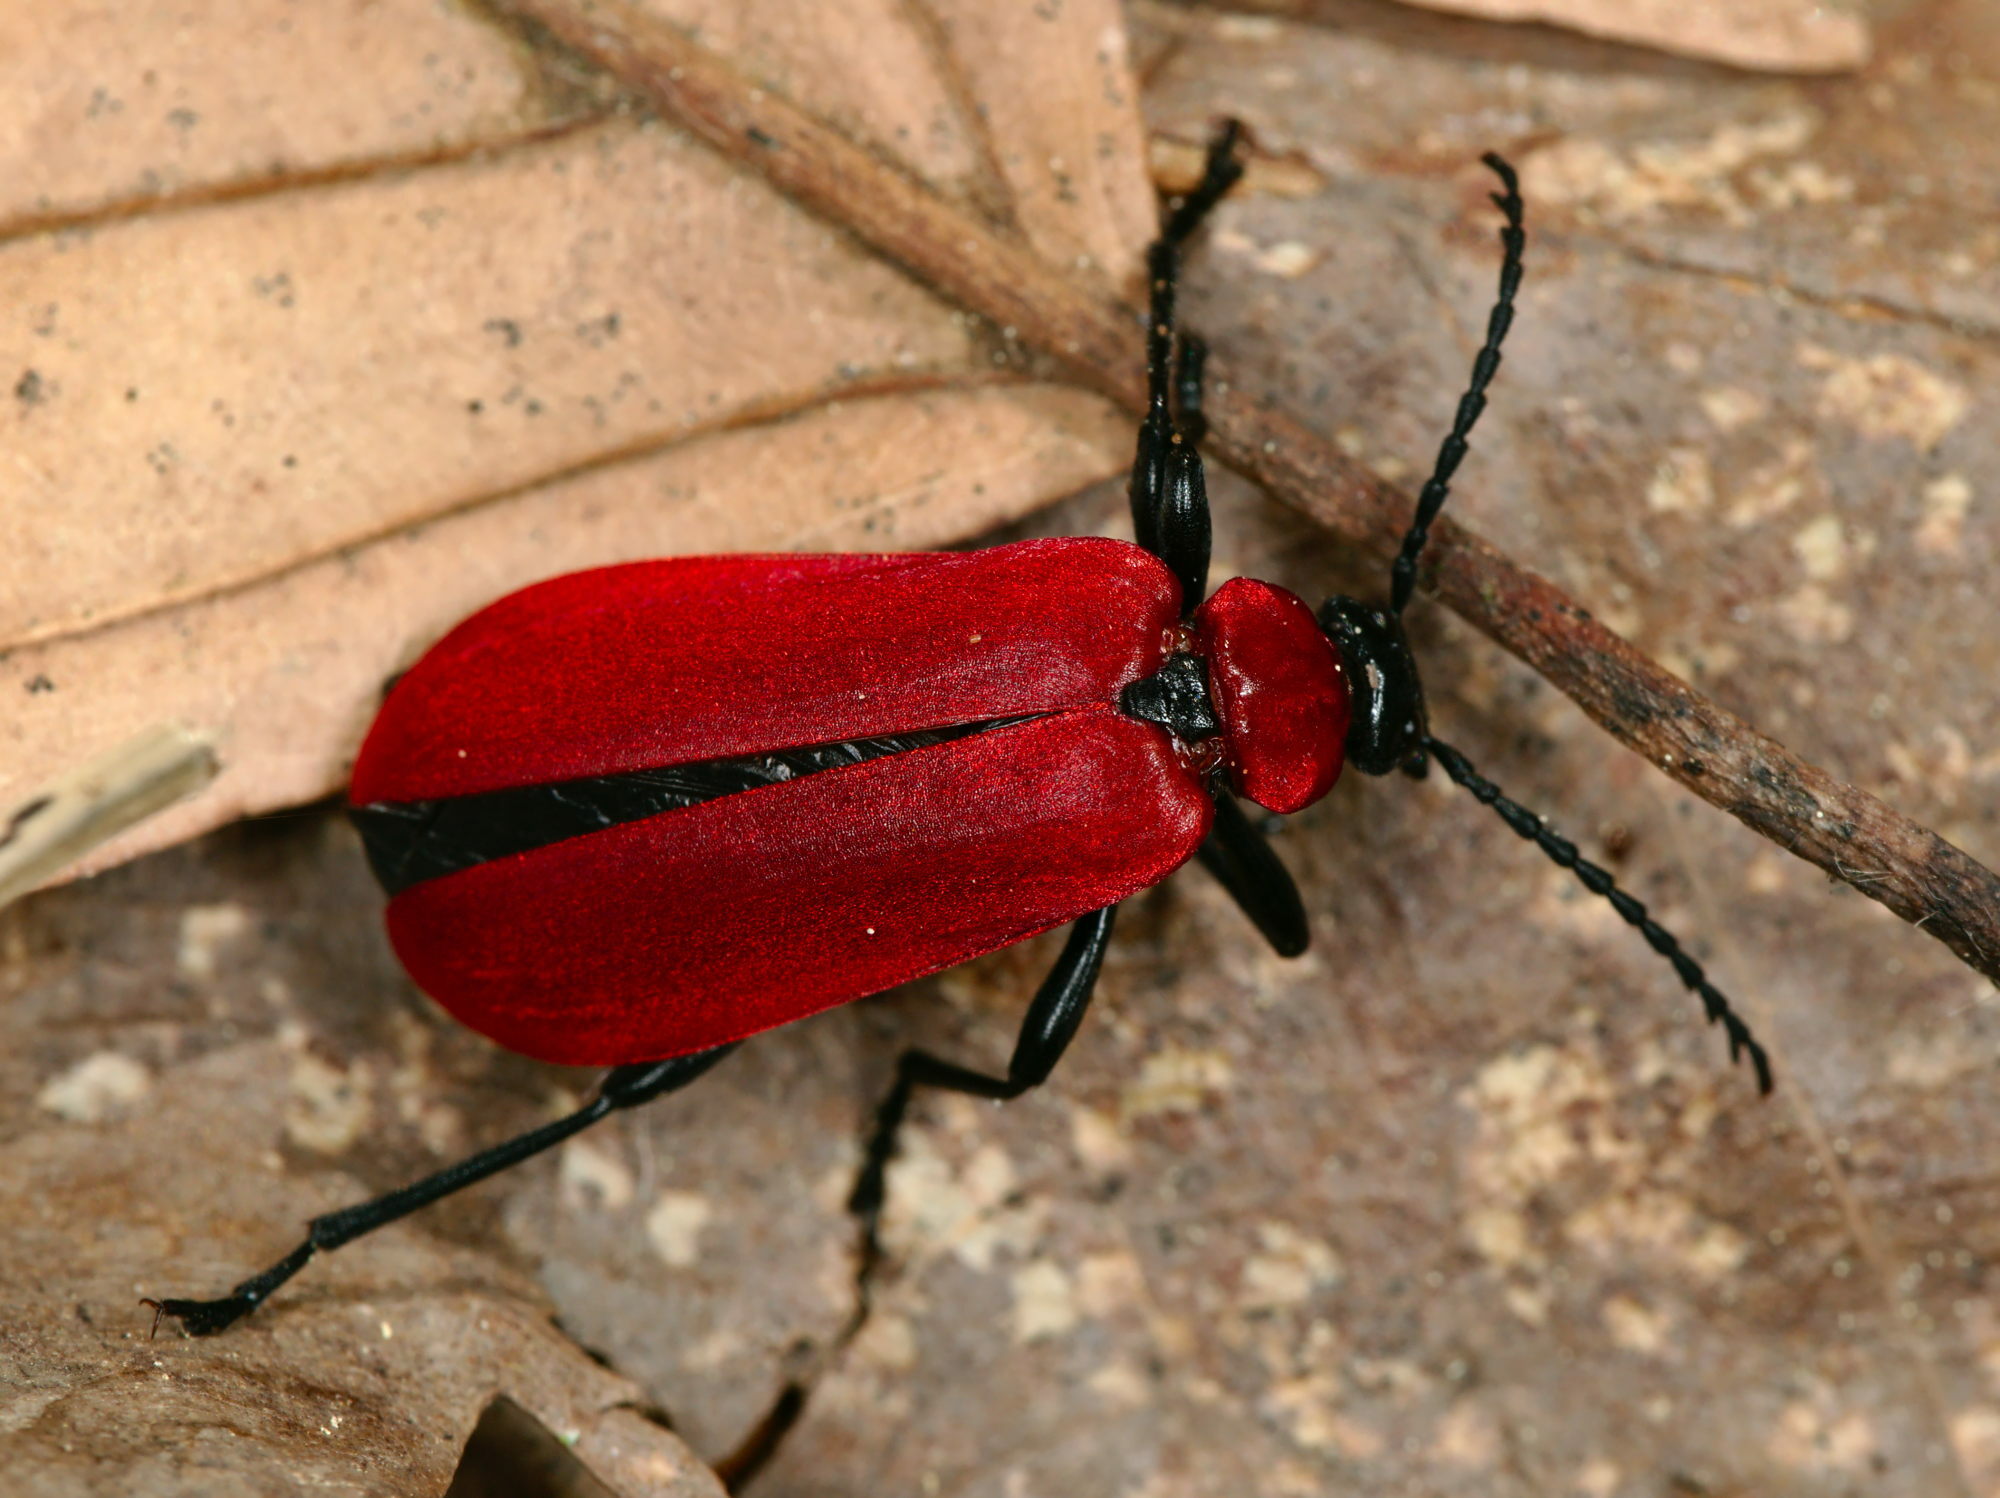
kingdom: Animalia
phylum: Arthropoda
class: Insecta
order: Coleoptera
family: Pyrochroidae
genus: Pyrochroa
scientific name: Pyrochroa coccinea
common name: Black-headed cardinal beetle
